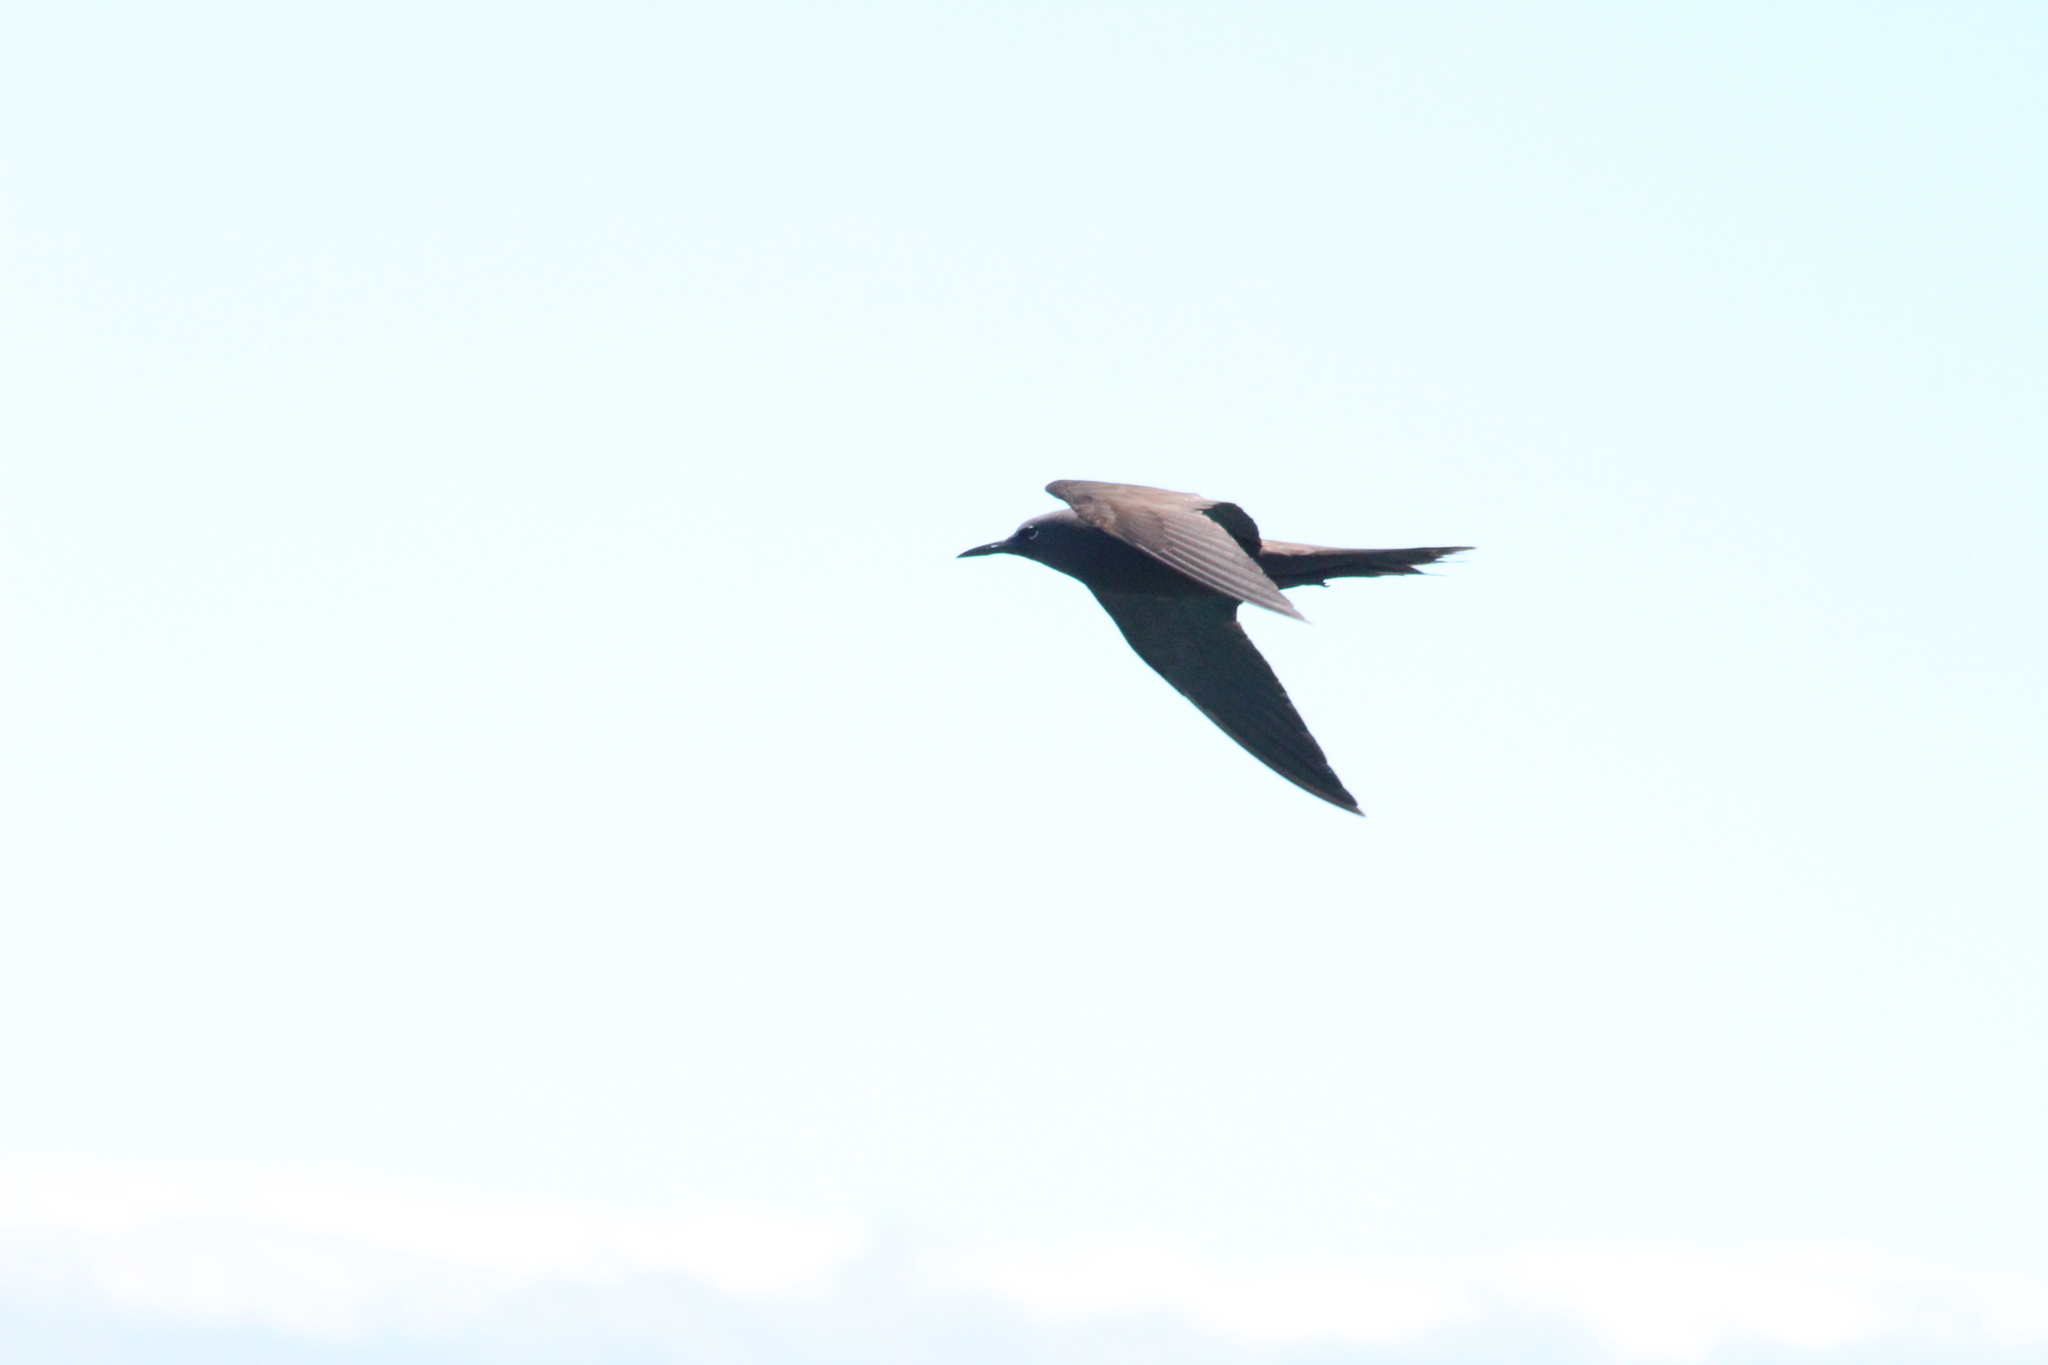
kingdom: Animalia
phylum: Chordata
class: Aves
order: Charadriiformes
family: Laridae
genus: Anous
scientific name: Anous stolidus
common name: Brown noddy
